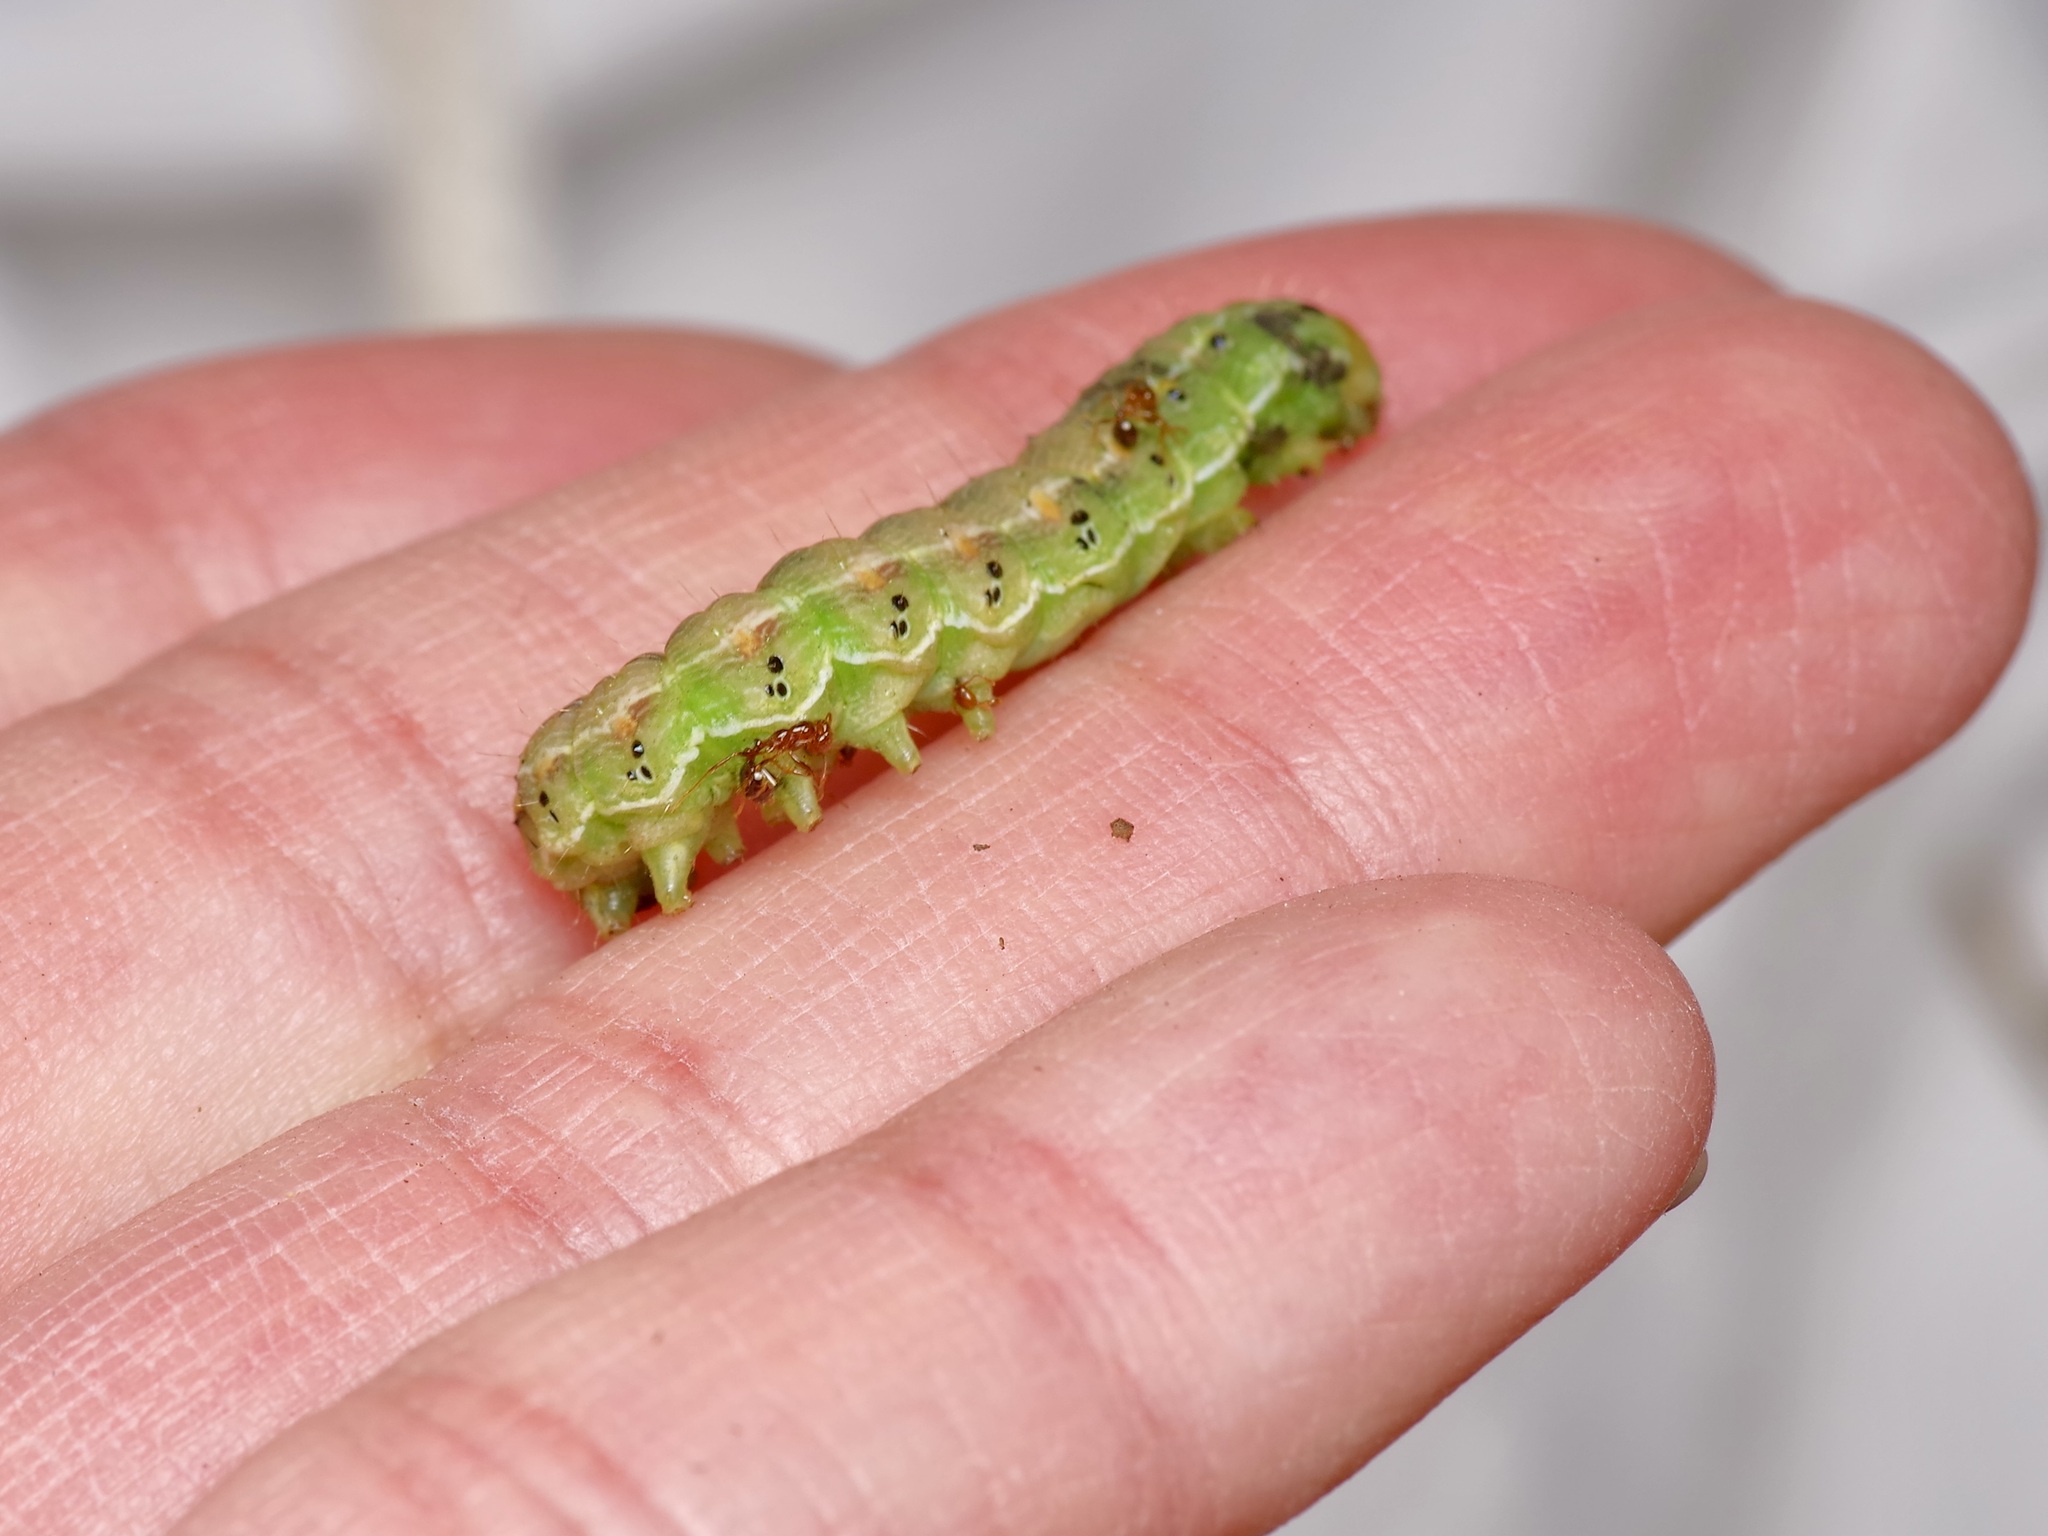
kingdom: Animalia
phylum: Arthropoda
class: Insecta
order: Lepidoptera
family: Noctuidae
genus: Helicoverpa
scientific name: Helicoverpa zea
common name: Bollworm
